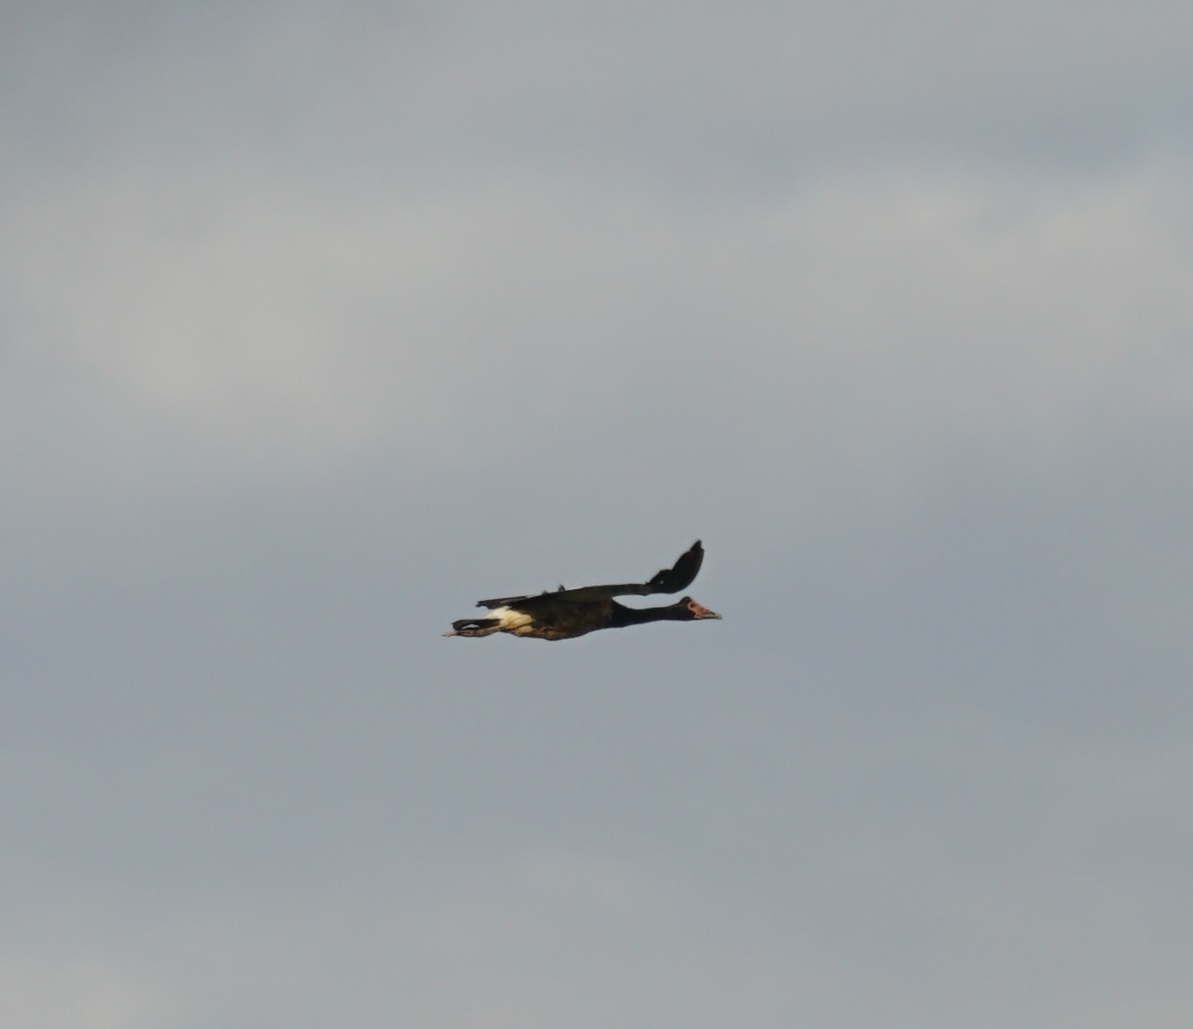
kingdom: Animalia
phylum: Chordata
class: Aves
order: Anseriformes
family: Anseranatidae
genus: Anseranas
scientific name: Anseranas semipalmata
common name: Magpie goose
